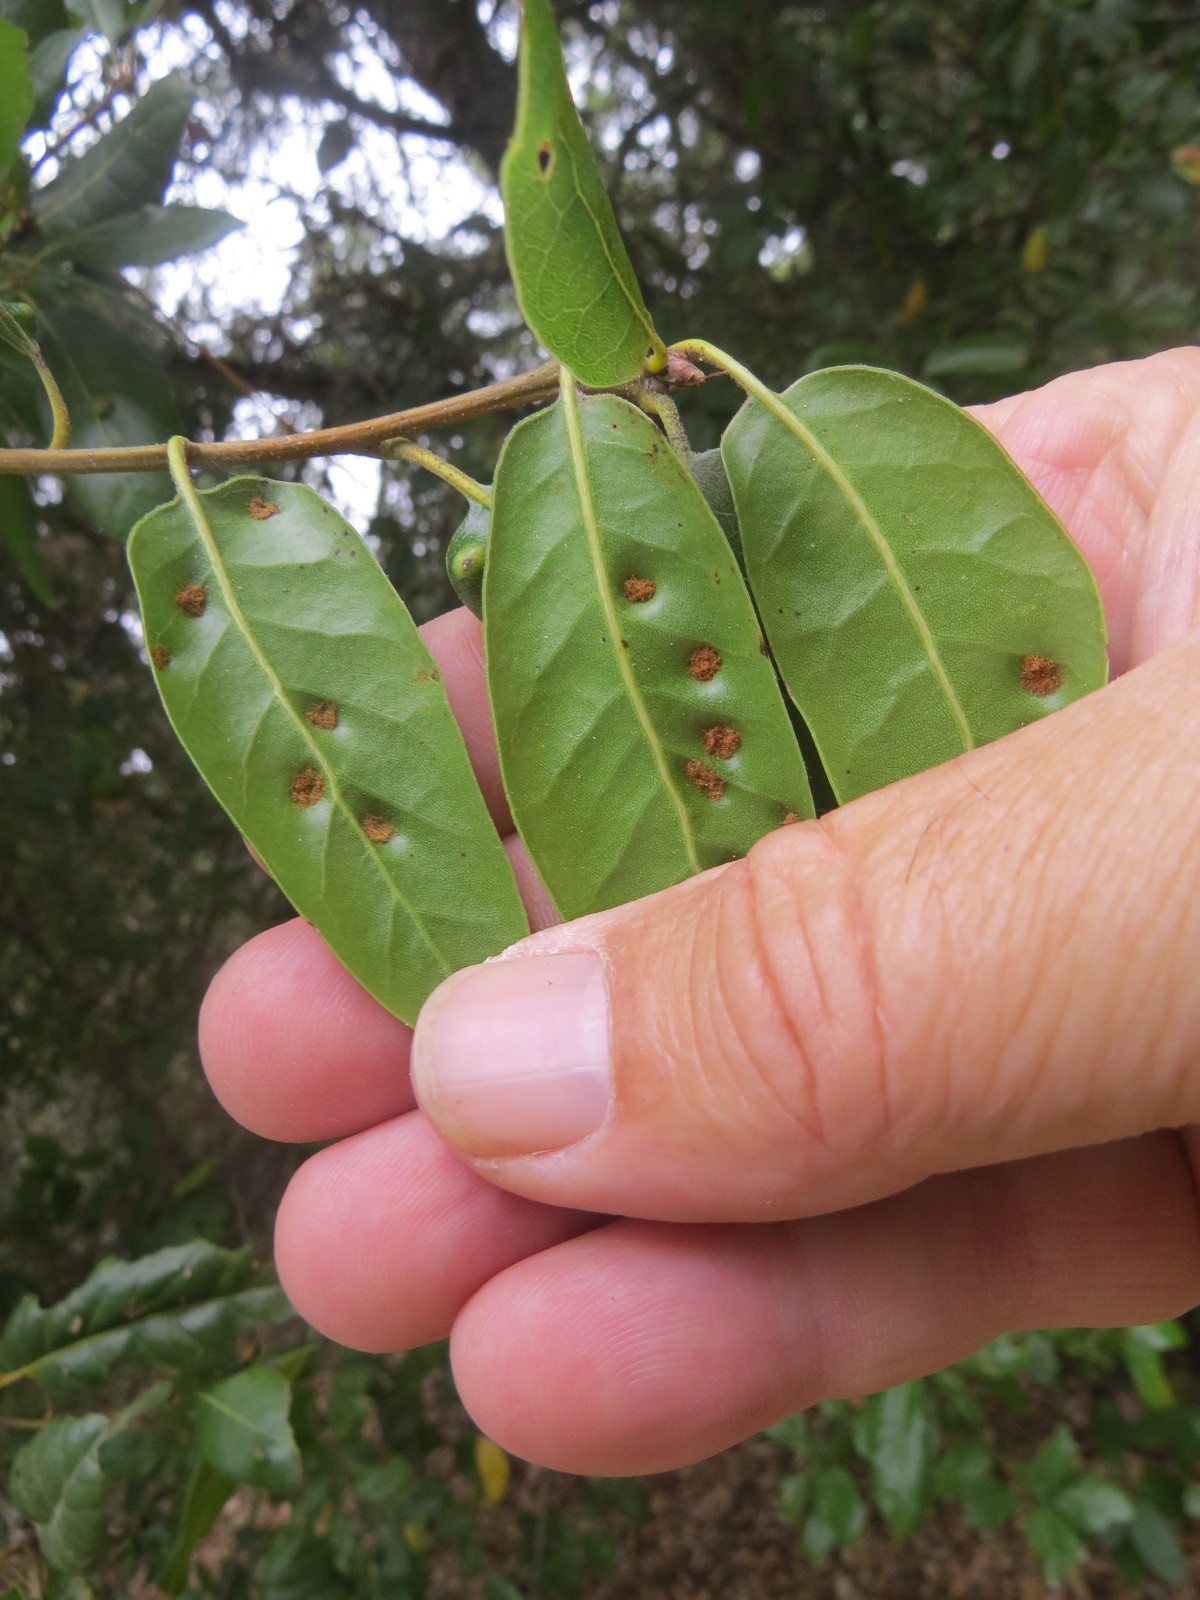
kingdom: Animalia
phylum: Arthropoda
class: Arachnida
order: Trombidiformes
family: Eriophyidae
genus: Aceria
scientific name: Aceria
